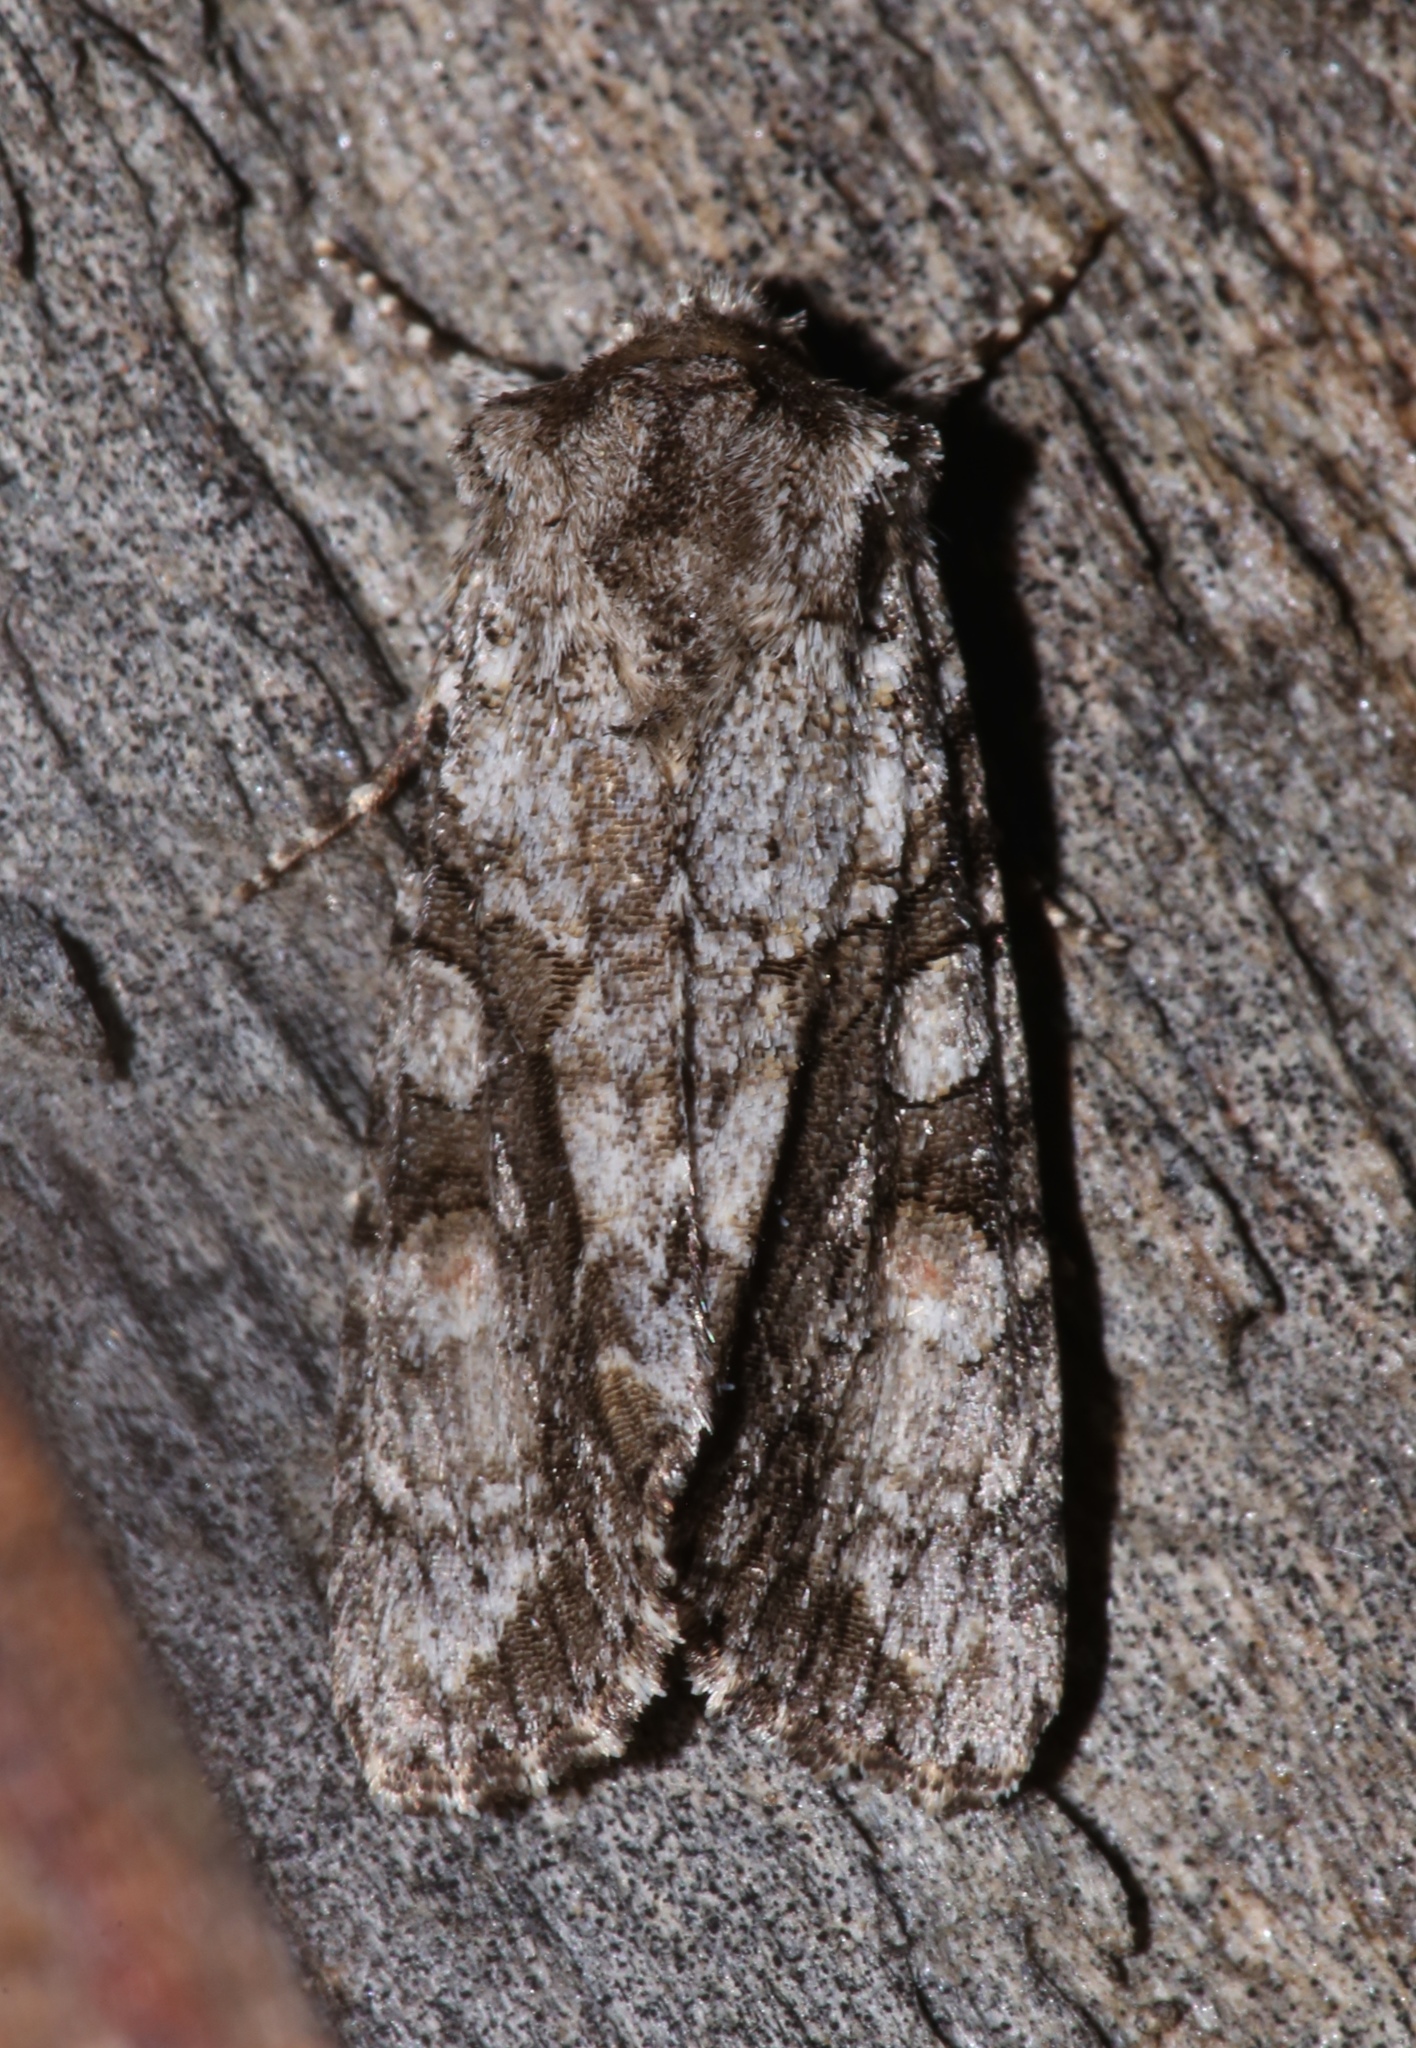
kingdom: Animalia
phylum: Arthropoda
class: Insecta
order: Lepidoptera
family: Noctuidae
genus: Achatia
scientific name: Achatia distincta
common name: Distinct quaker
